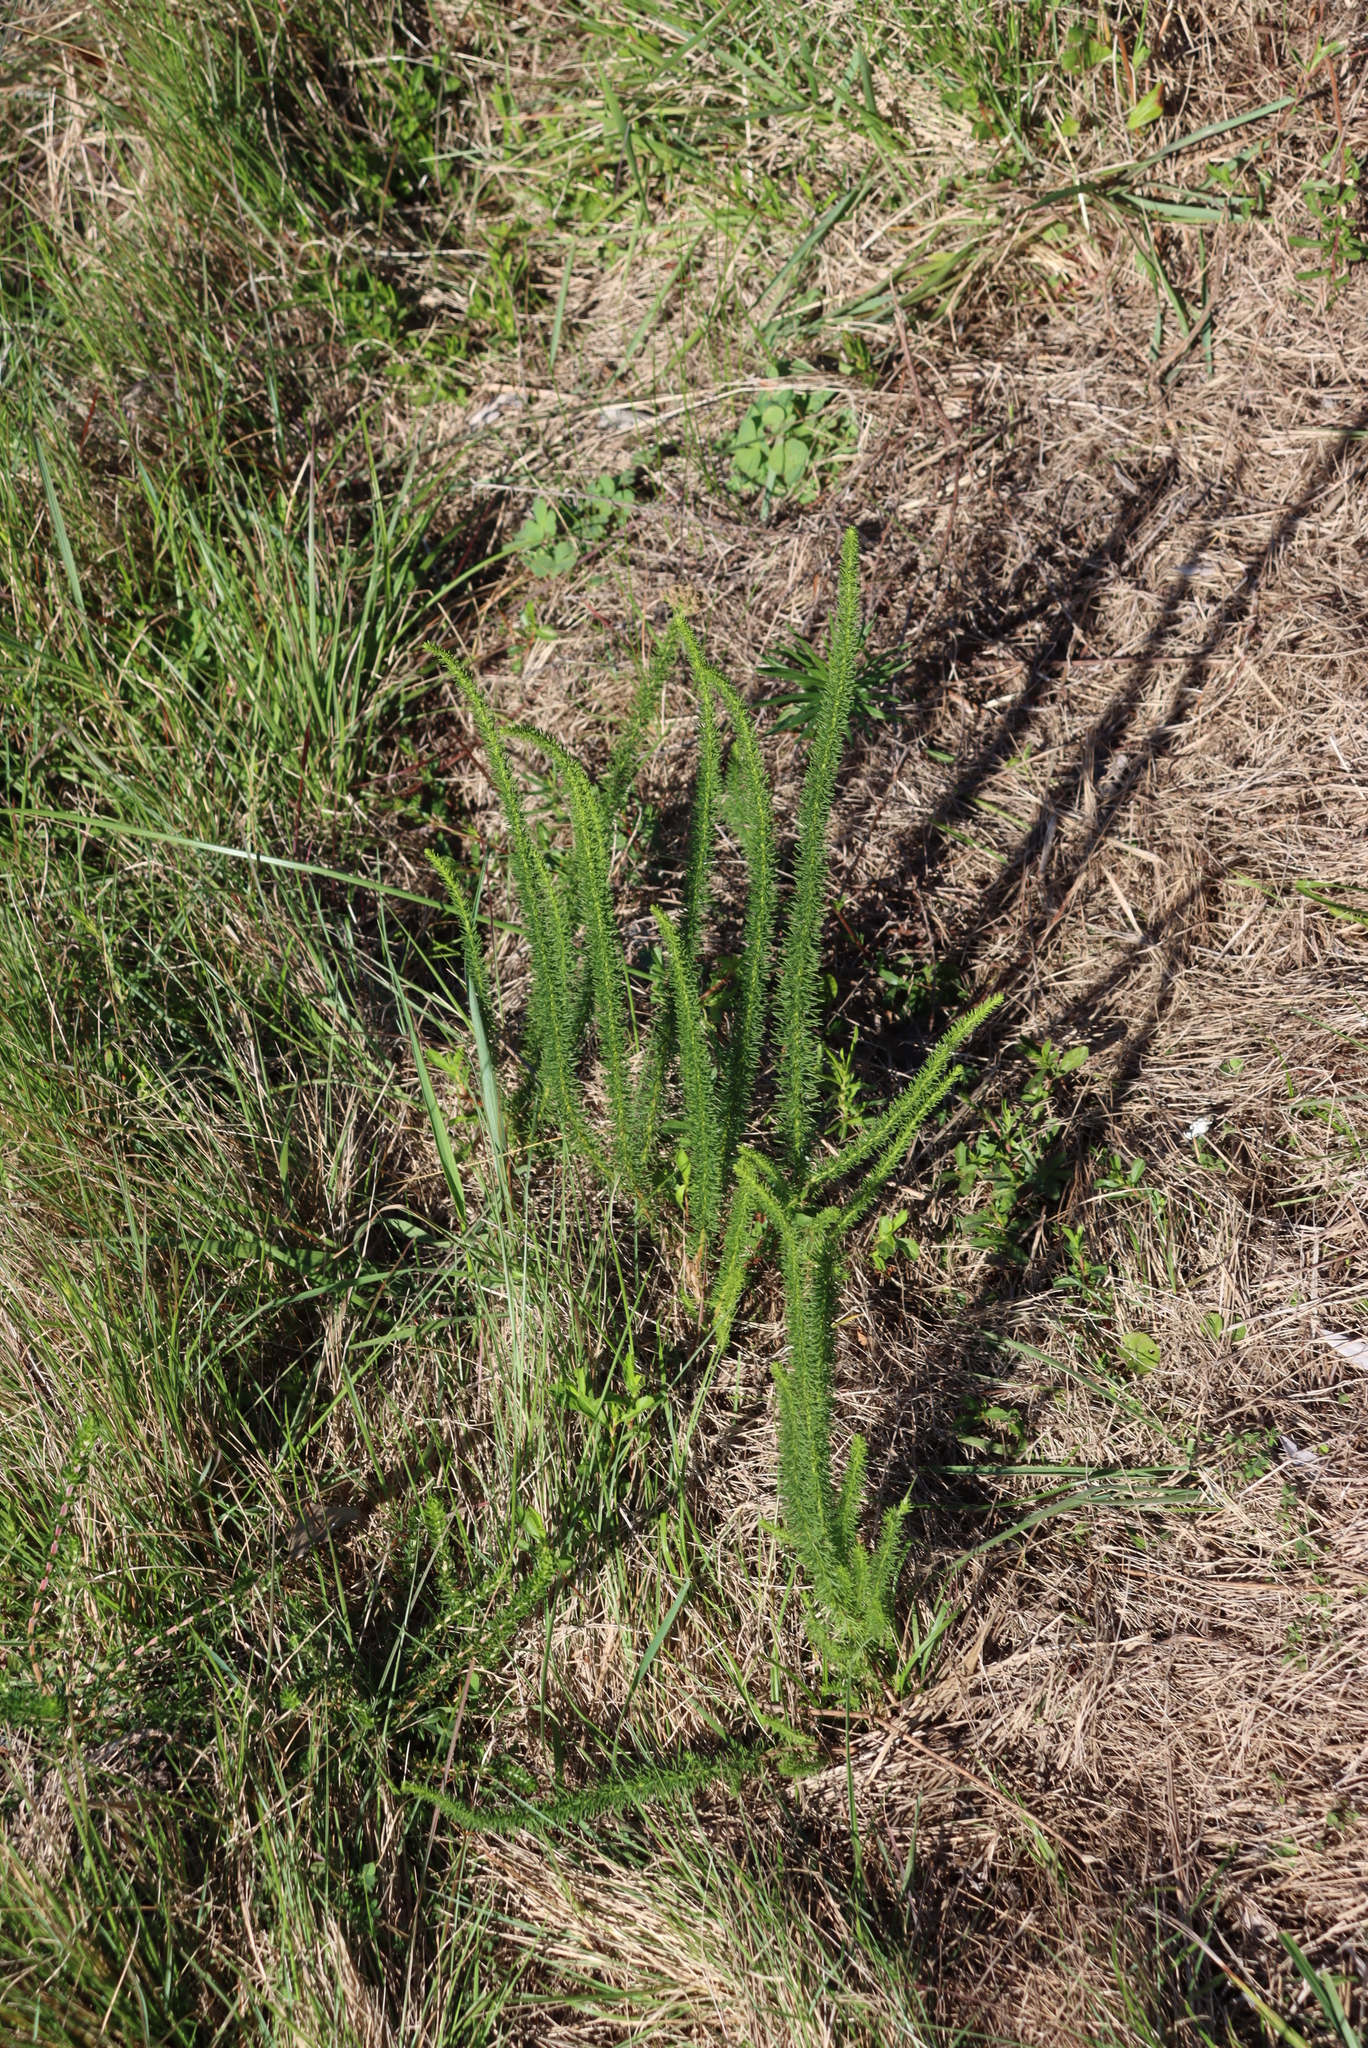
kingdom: Plantae
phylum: Tracheophyta
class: Magnoliopsida
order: Lamiales
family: Scrophulariaceae
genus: Selago
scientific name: Selago corymbosa
